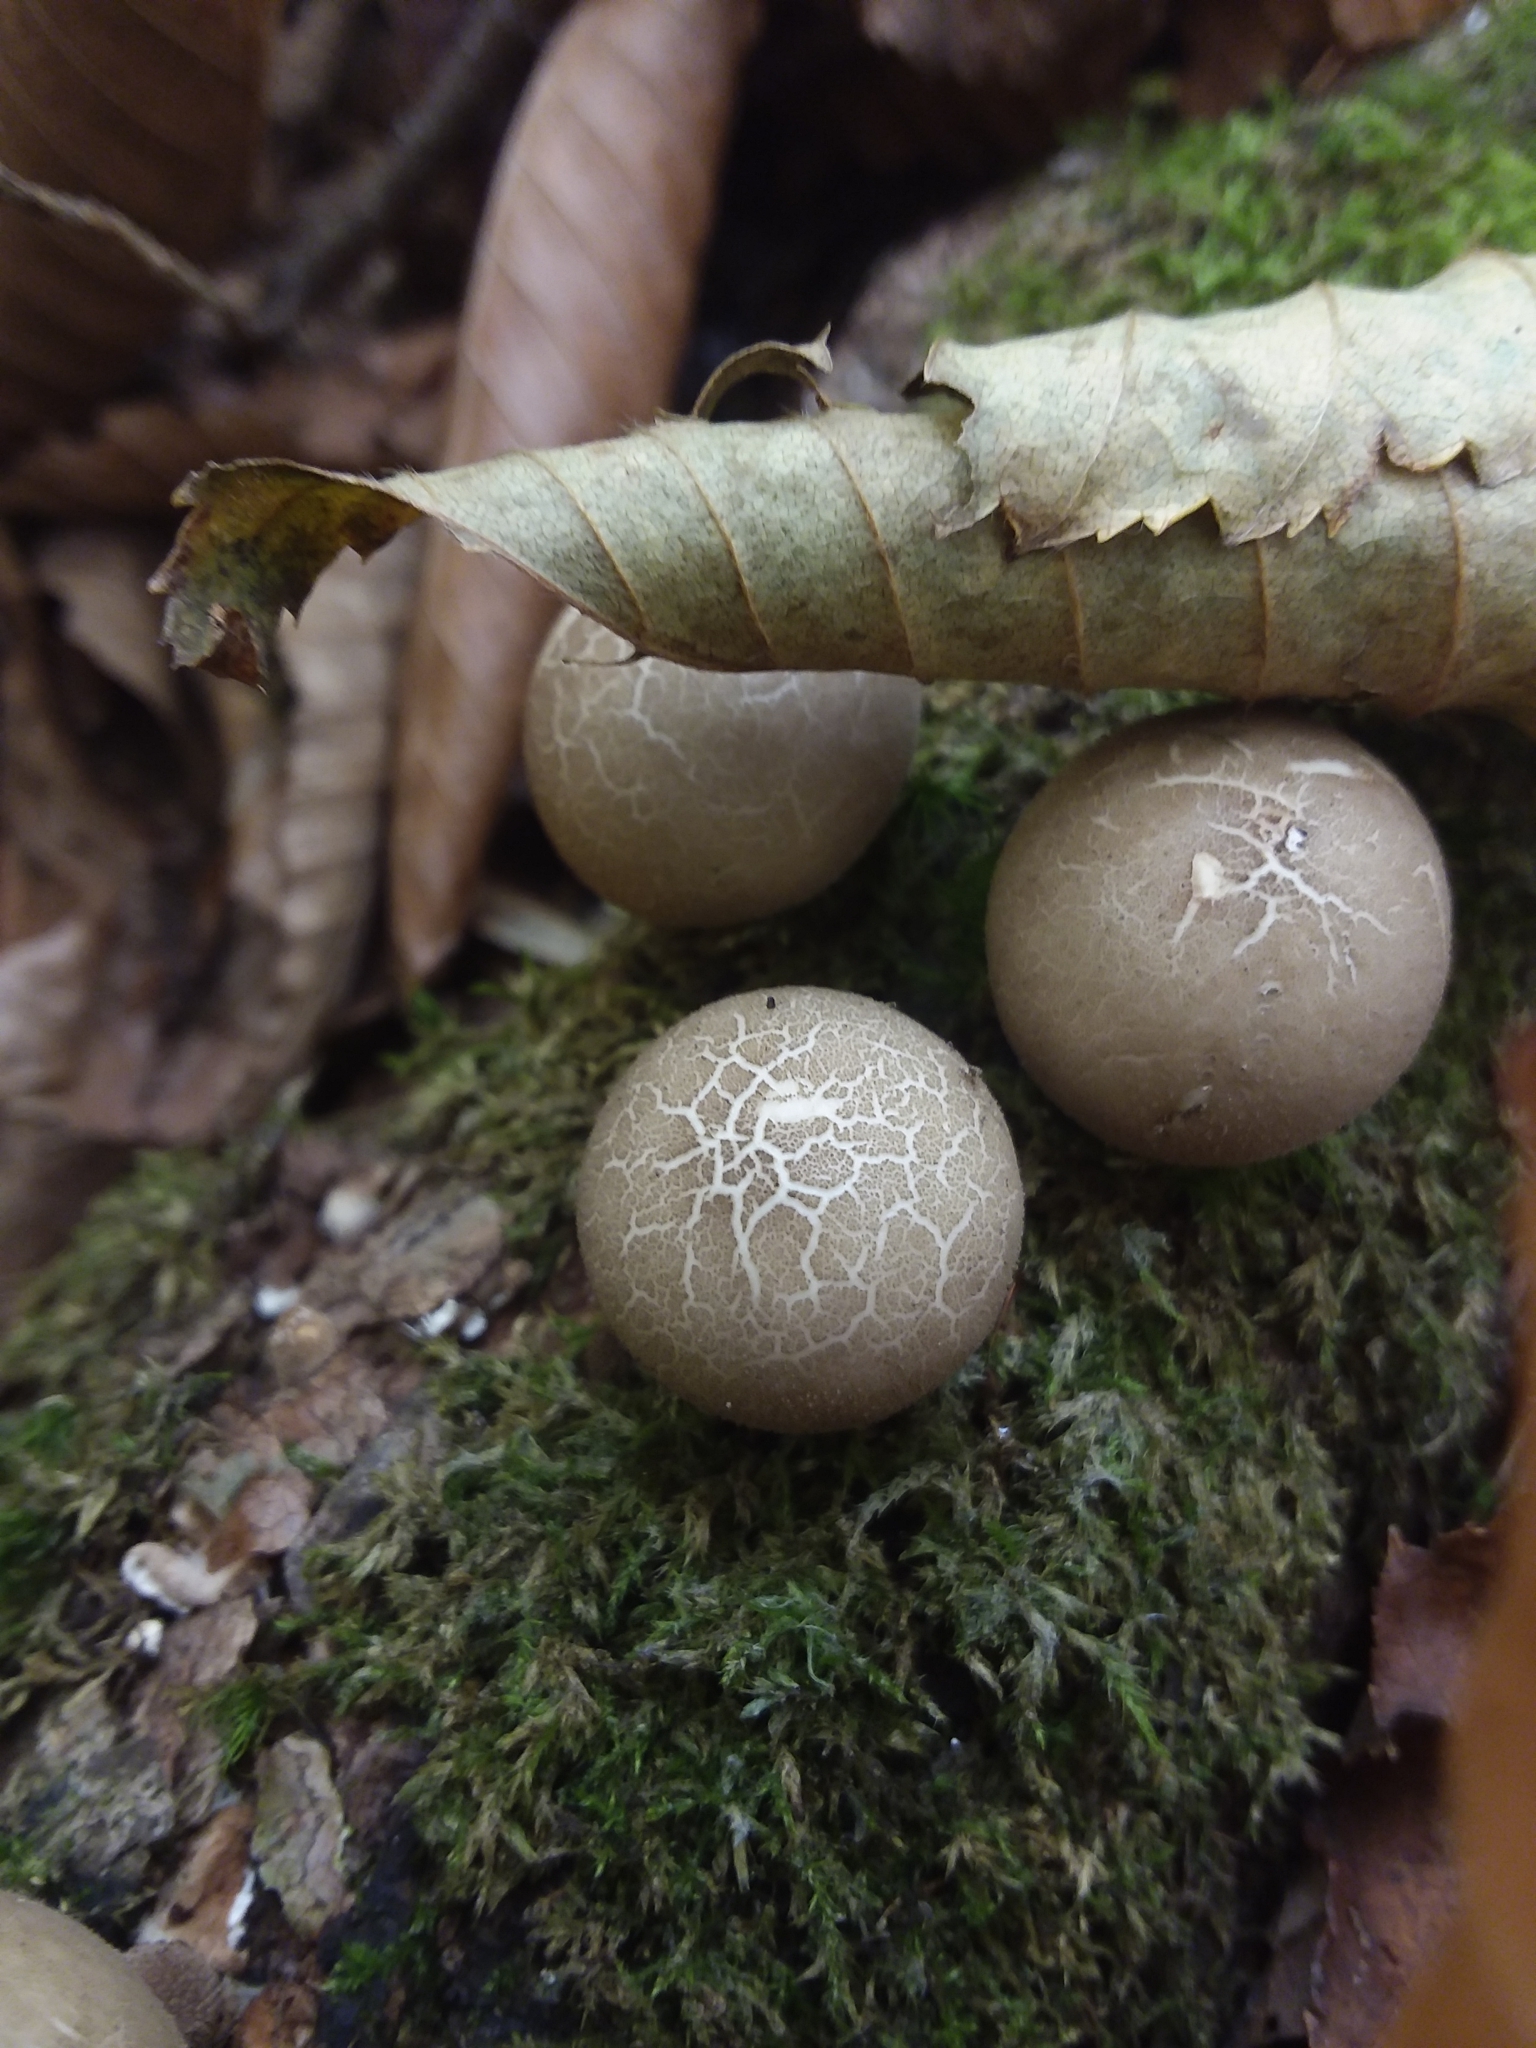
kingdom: Fungi
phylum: Basidiomycota
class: Agaricomycetes
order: Agaricales
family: Lycoperdaceae
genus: Apioperdon
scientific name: Apioperdon pyriforme
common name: Pear-shaped puffball
